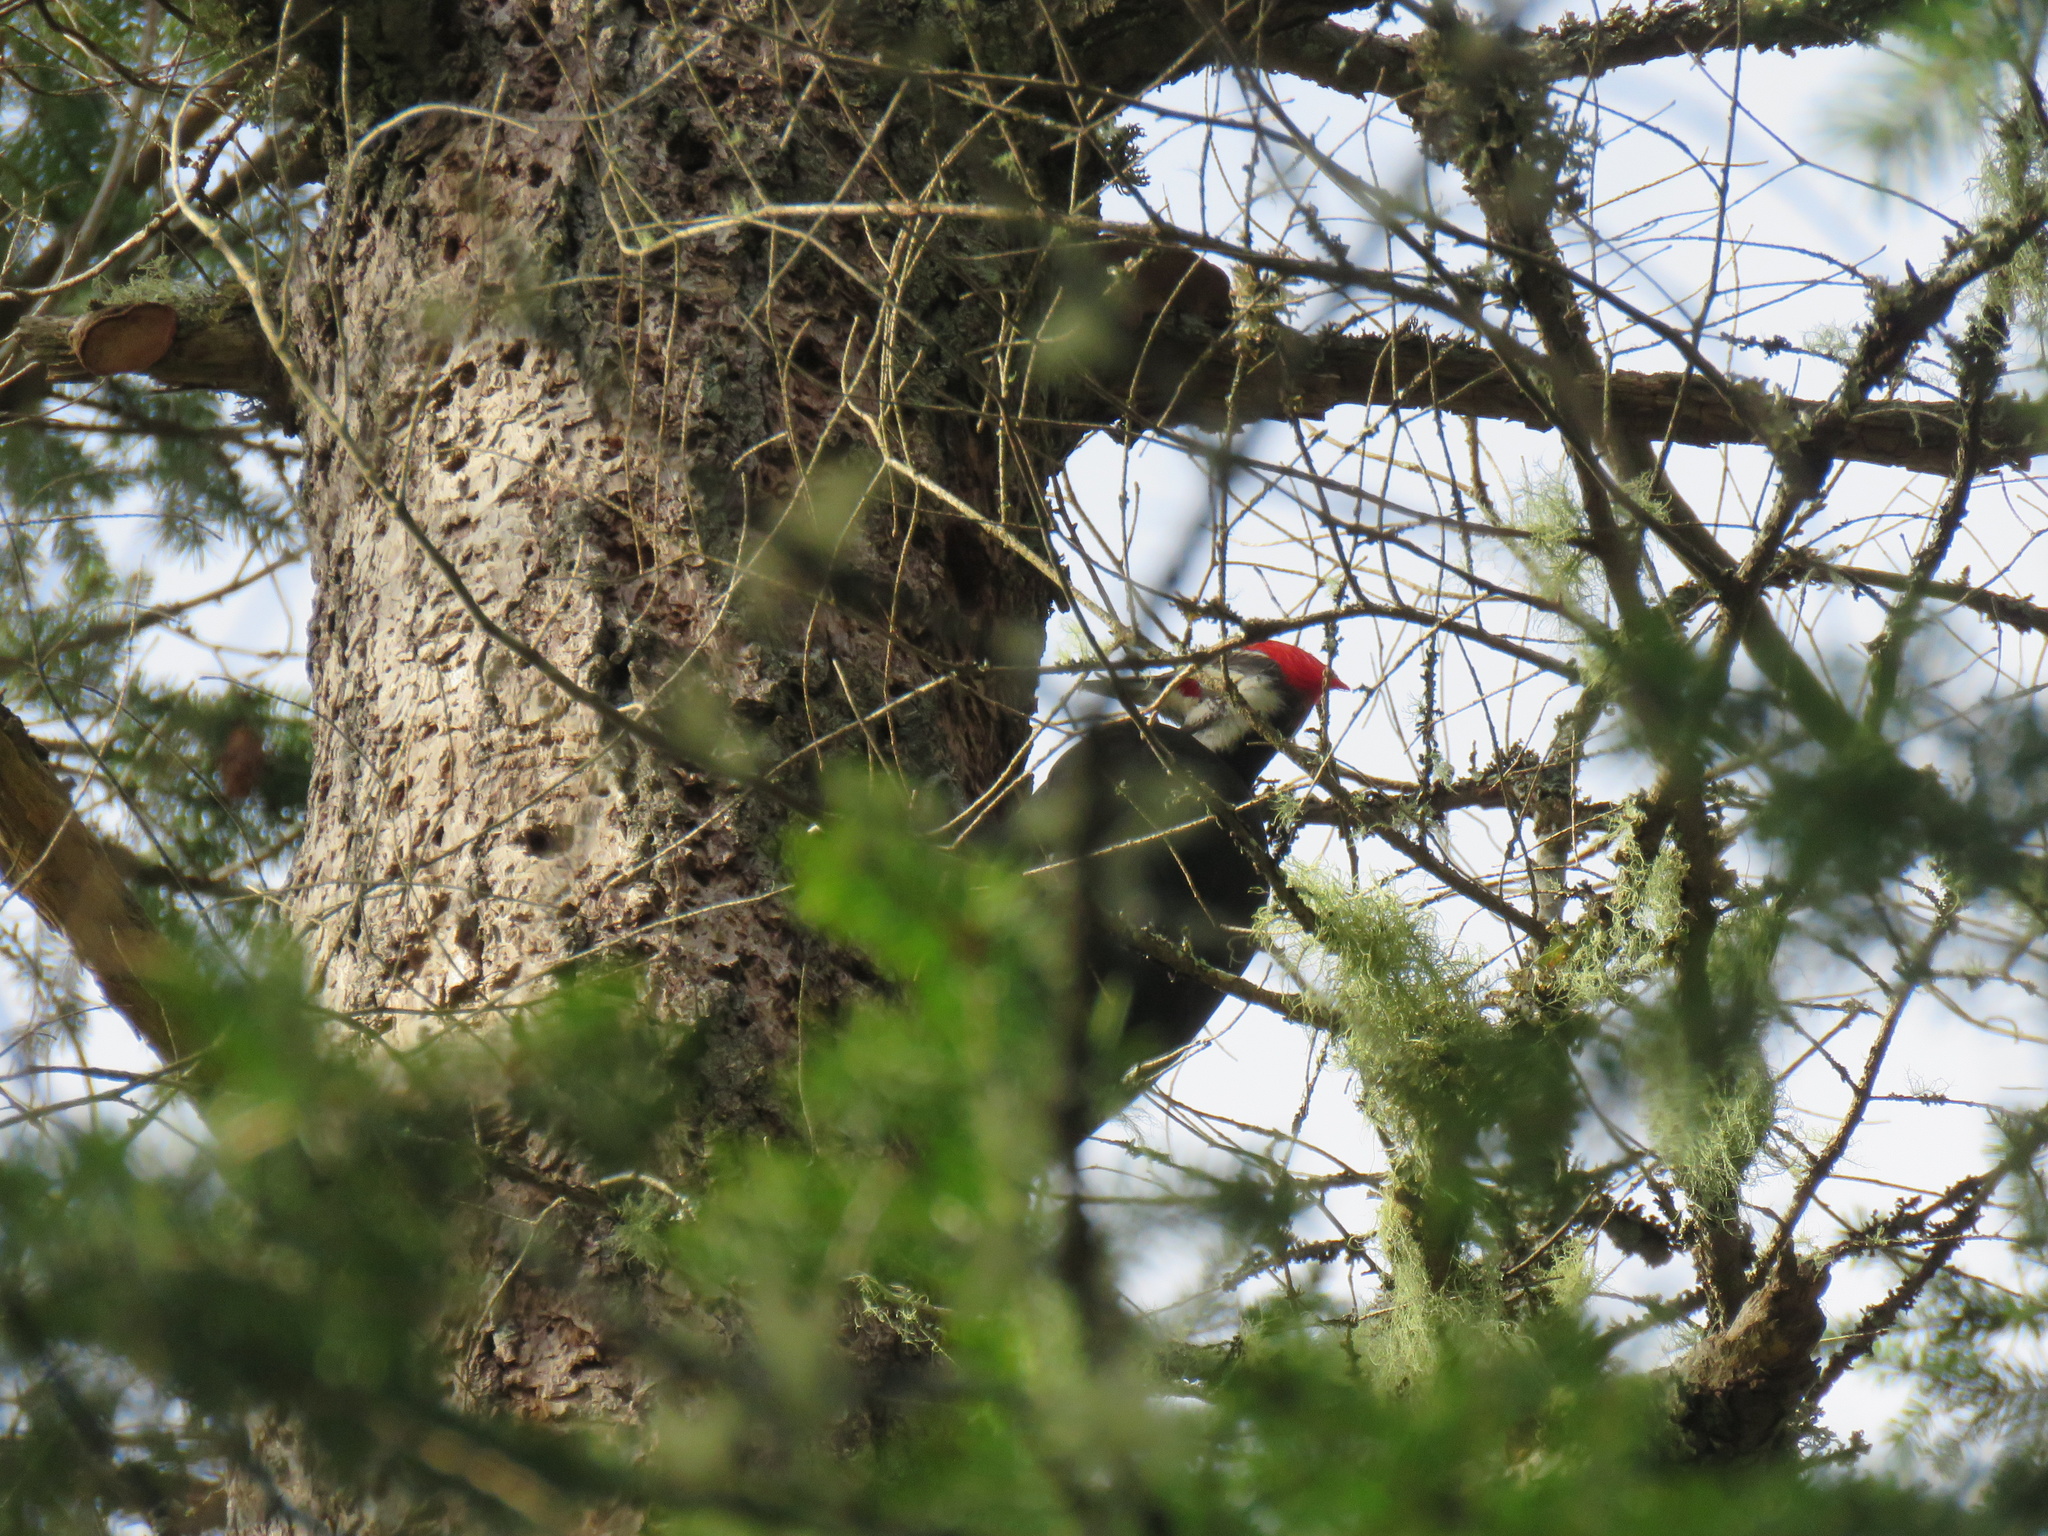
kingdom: Animalia
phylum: Chordata
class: Aves
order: Piciformes
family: Picidae
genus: Dryocopus
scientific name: Dryocopus pileatus
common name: Pileated woodpecker
